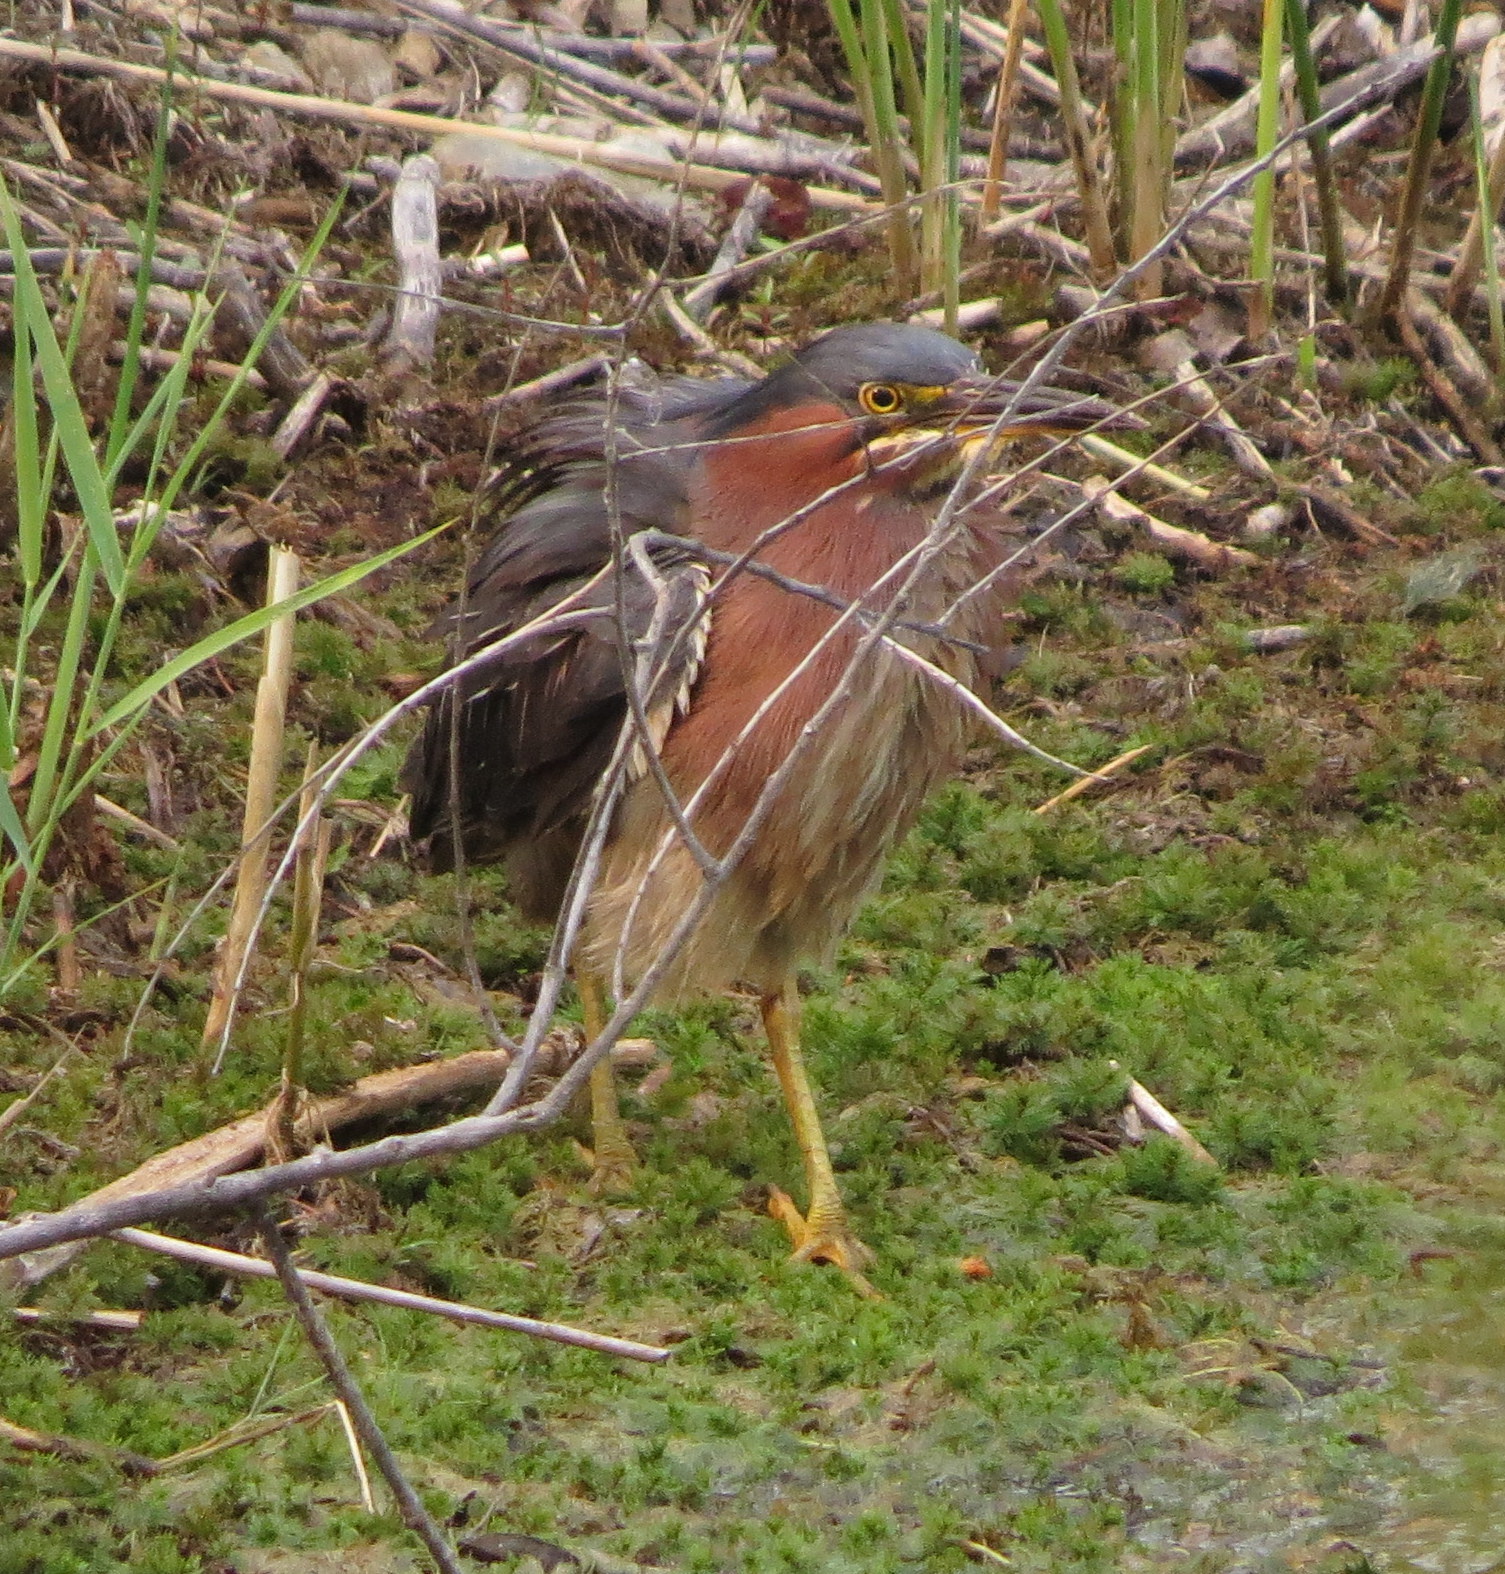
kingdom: Animalia
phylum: Chordata
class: Aves
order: Pelecaniformes
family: Ardeidae
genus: Butorides
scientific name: Butorides virescens
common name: Green heron
